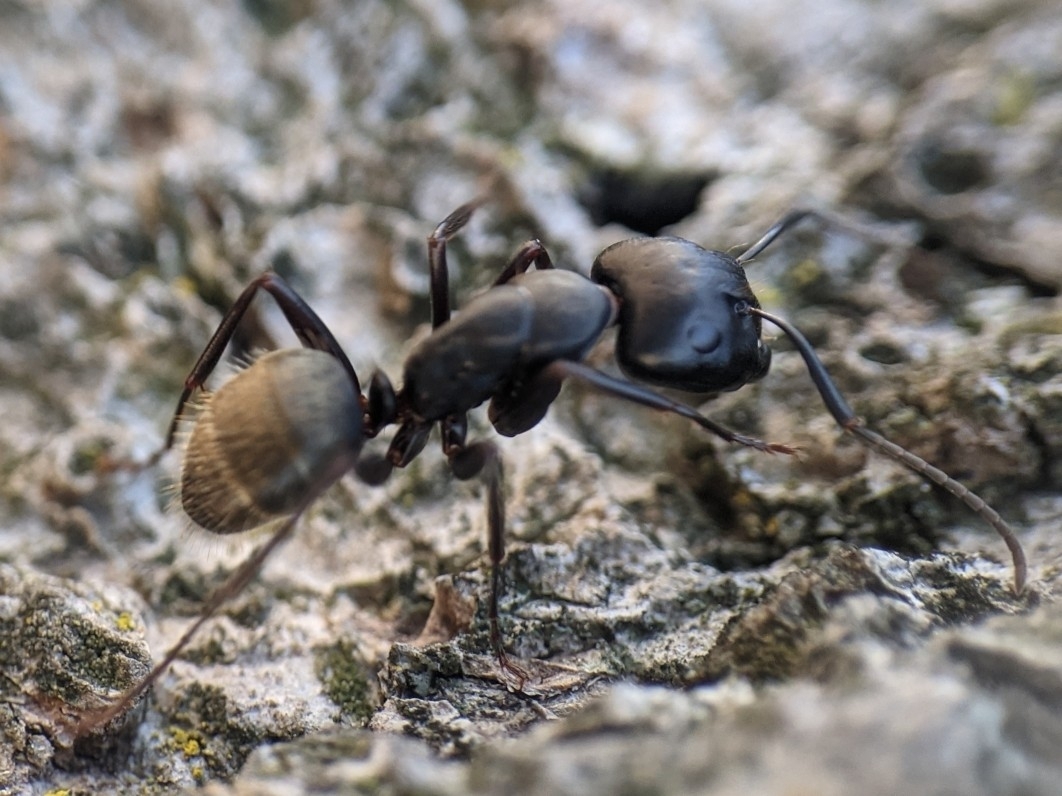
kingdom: Animalia
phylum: Arthropoda
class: Insecta
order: Hymenoptera
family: Formicidae
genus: Camponotus
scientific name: Camponotus pennsylvanicus
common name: Black carpenter ant
